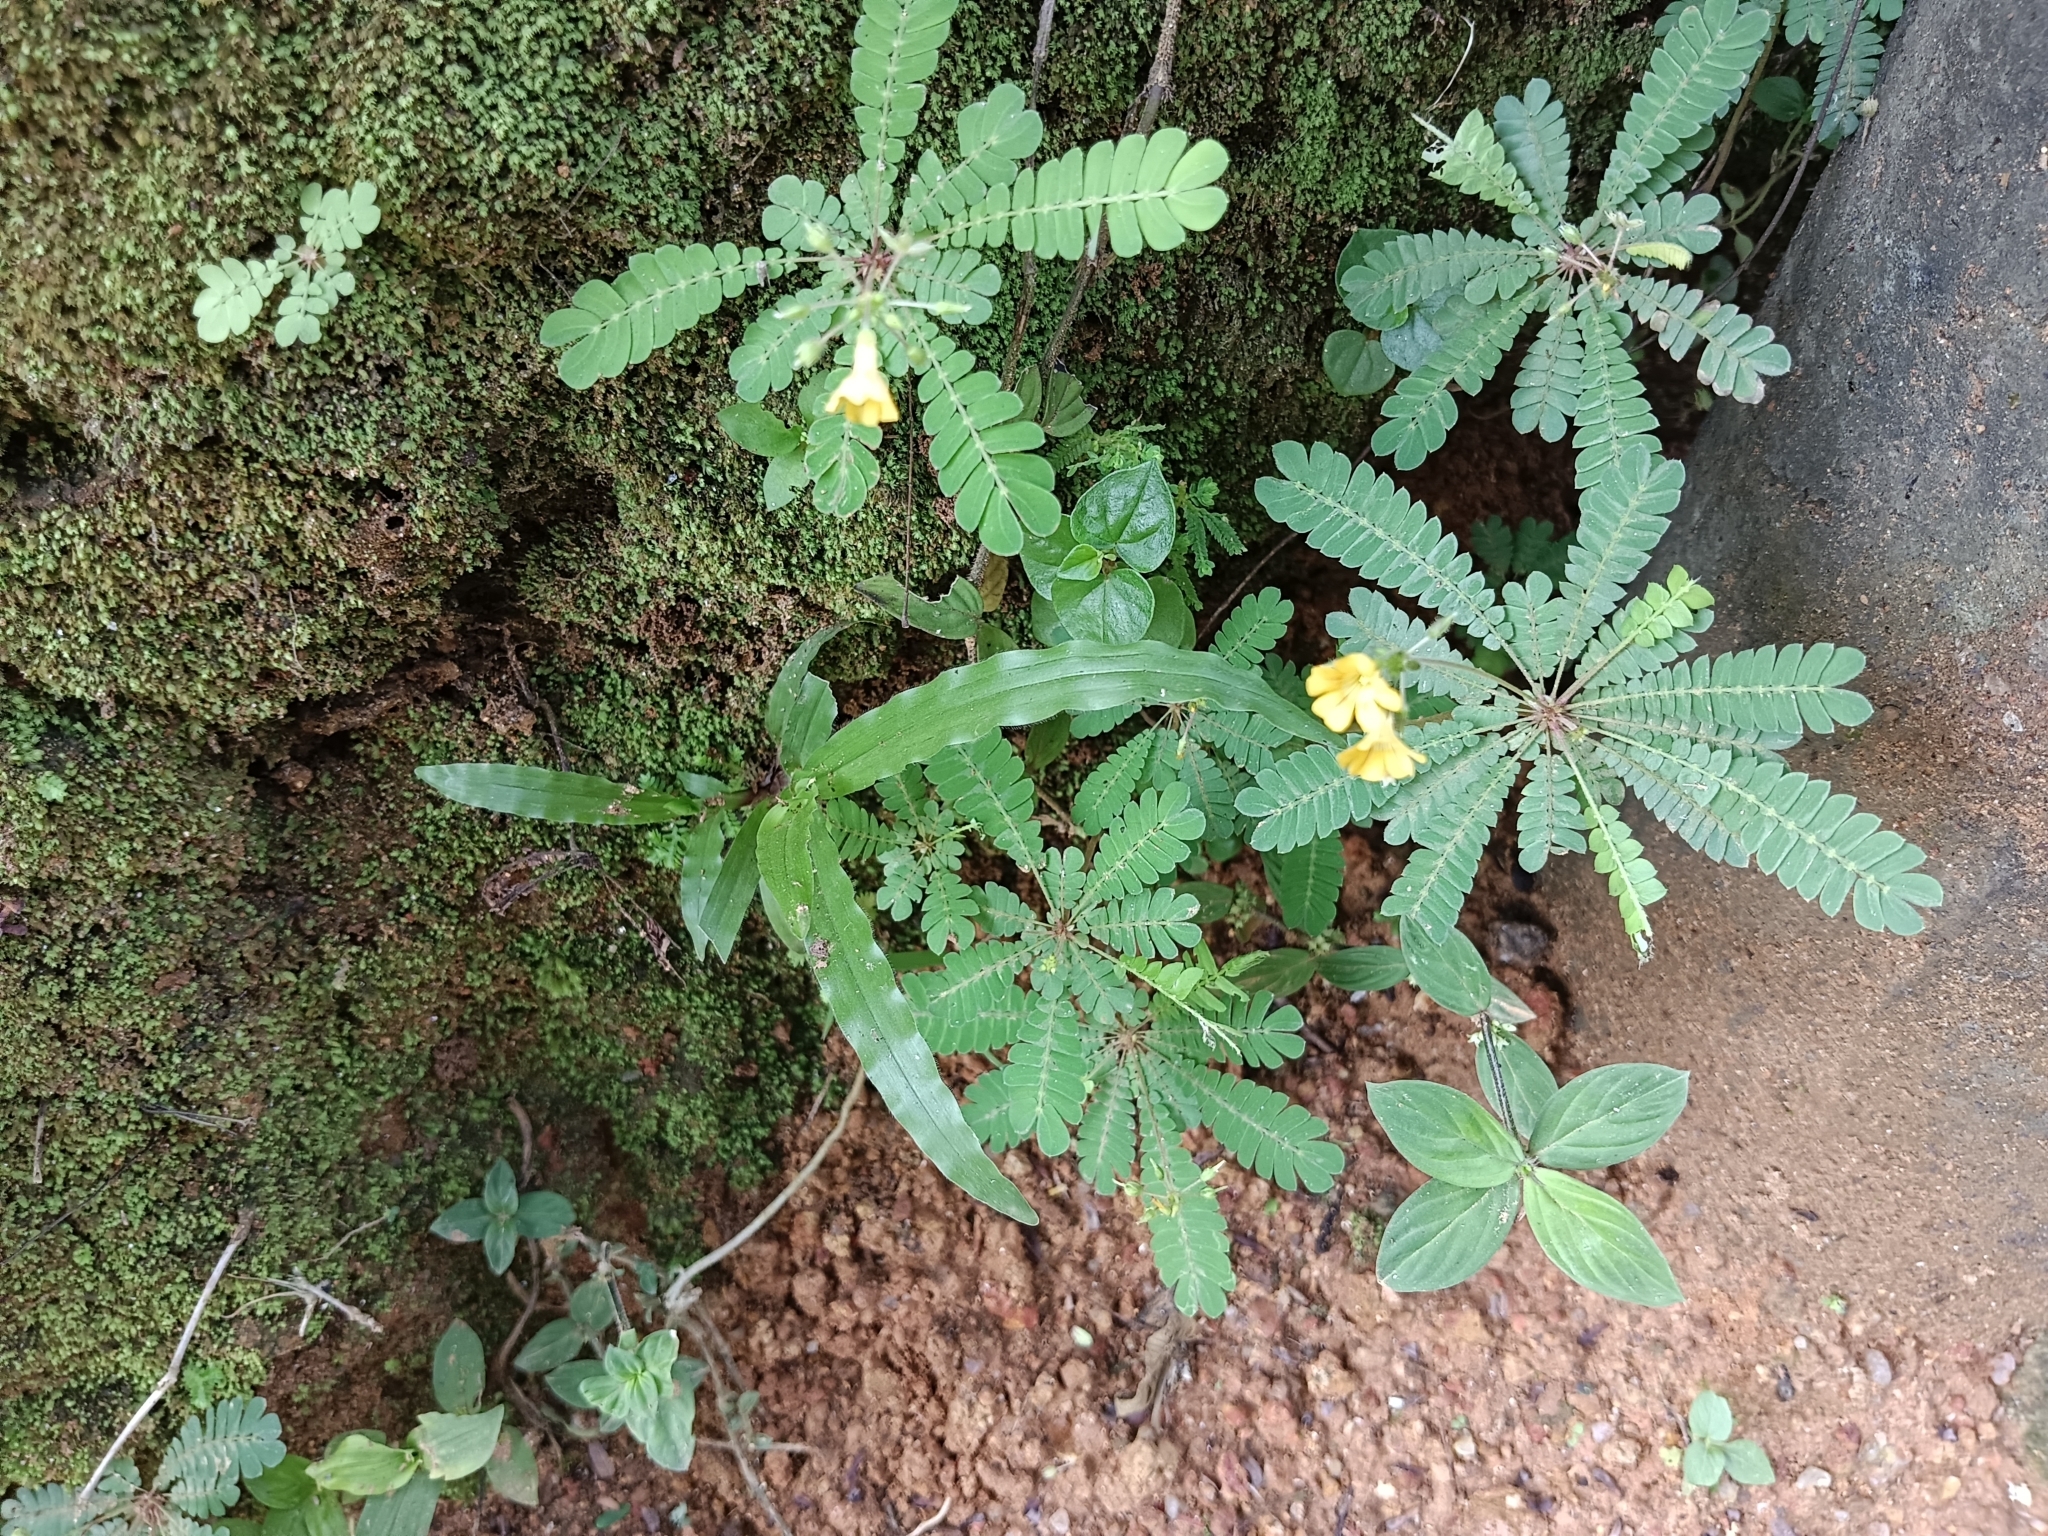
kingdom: Plantae
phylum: Tracheophyta
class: Magnoliopsida
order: Oxalidales
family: Oxalidaceae
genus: Biophytum
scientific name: Biophytum sensitivum
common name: Lifeplant
